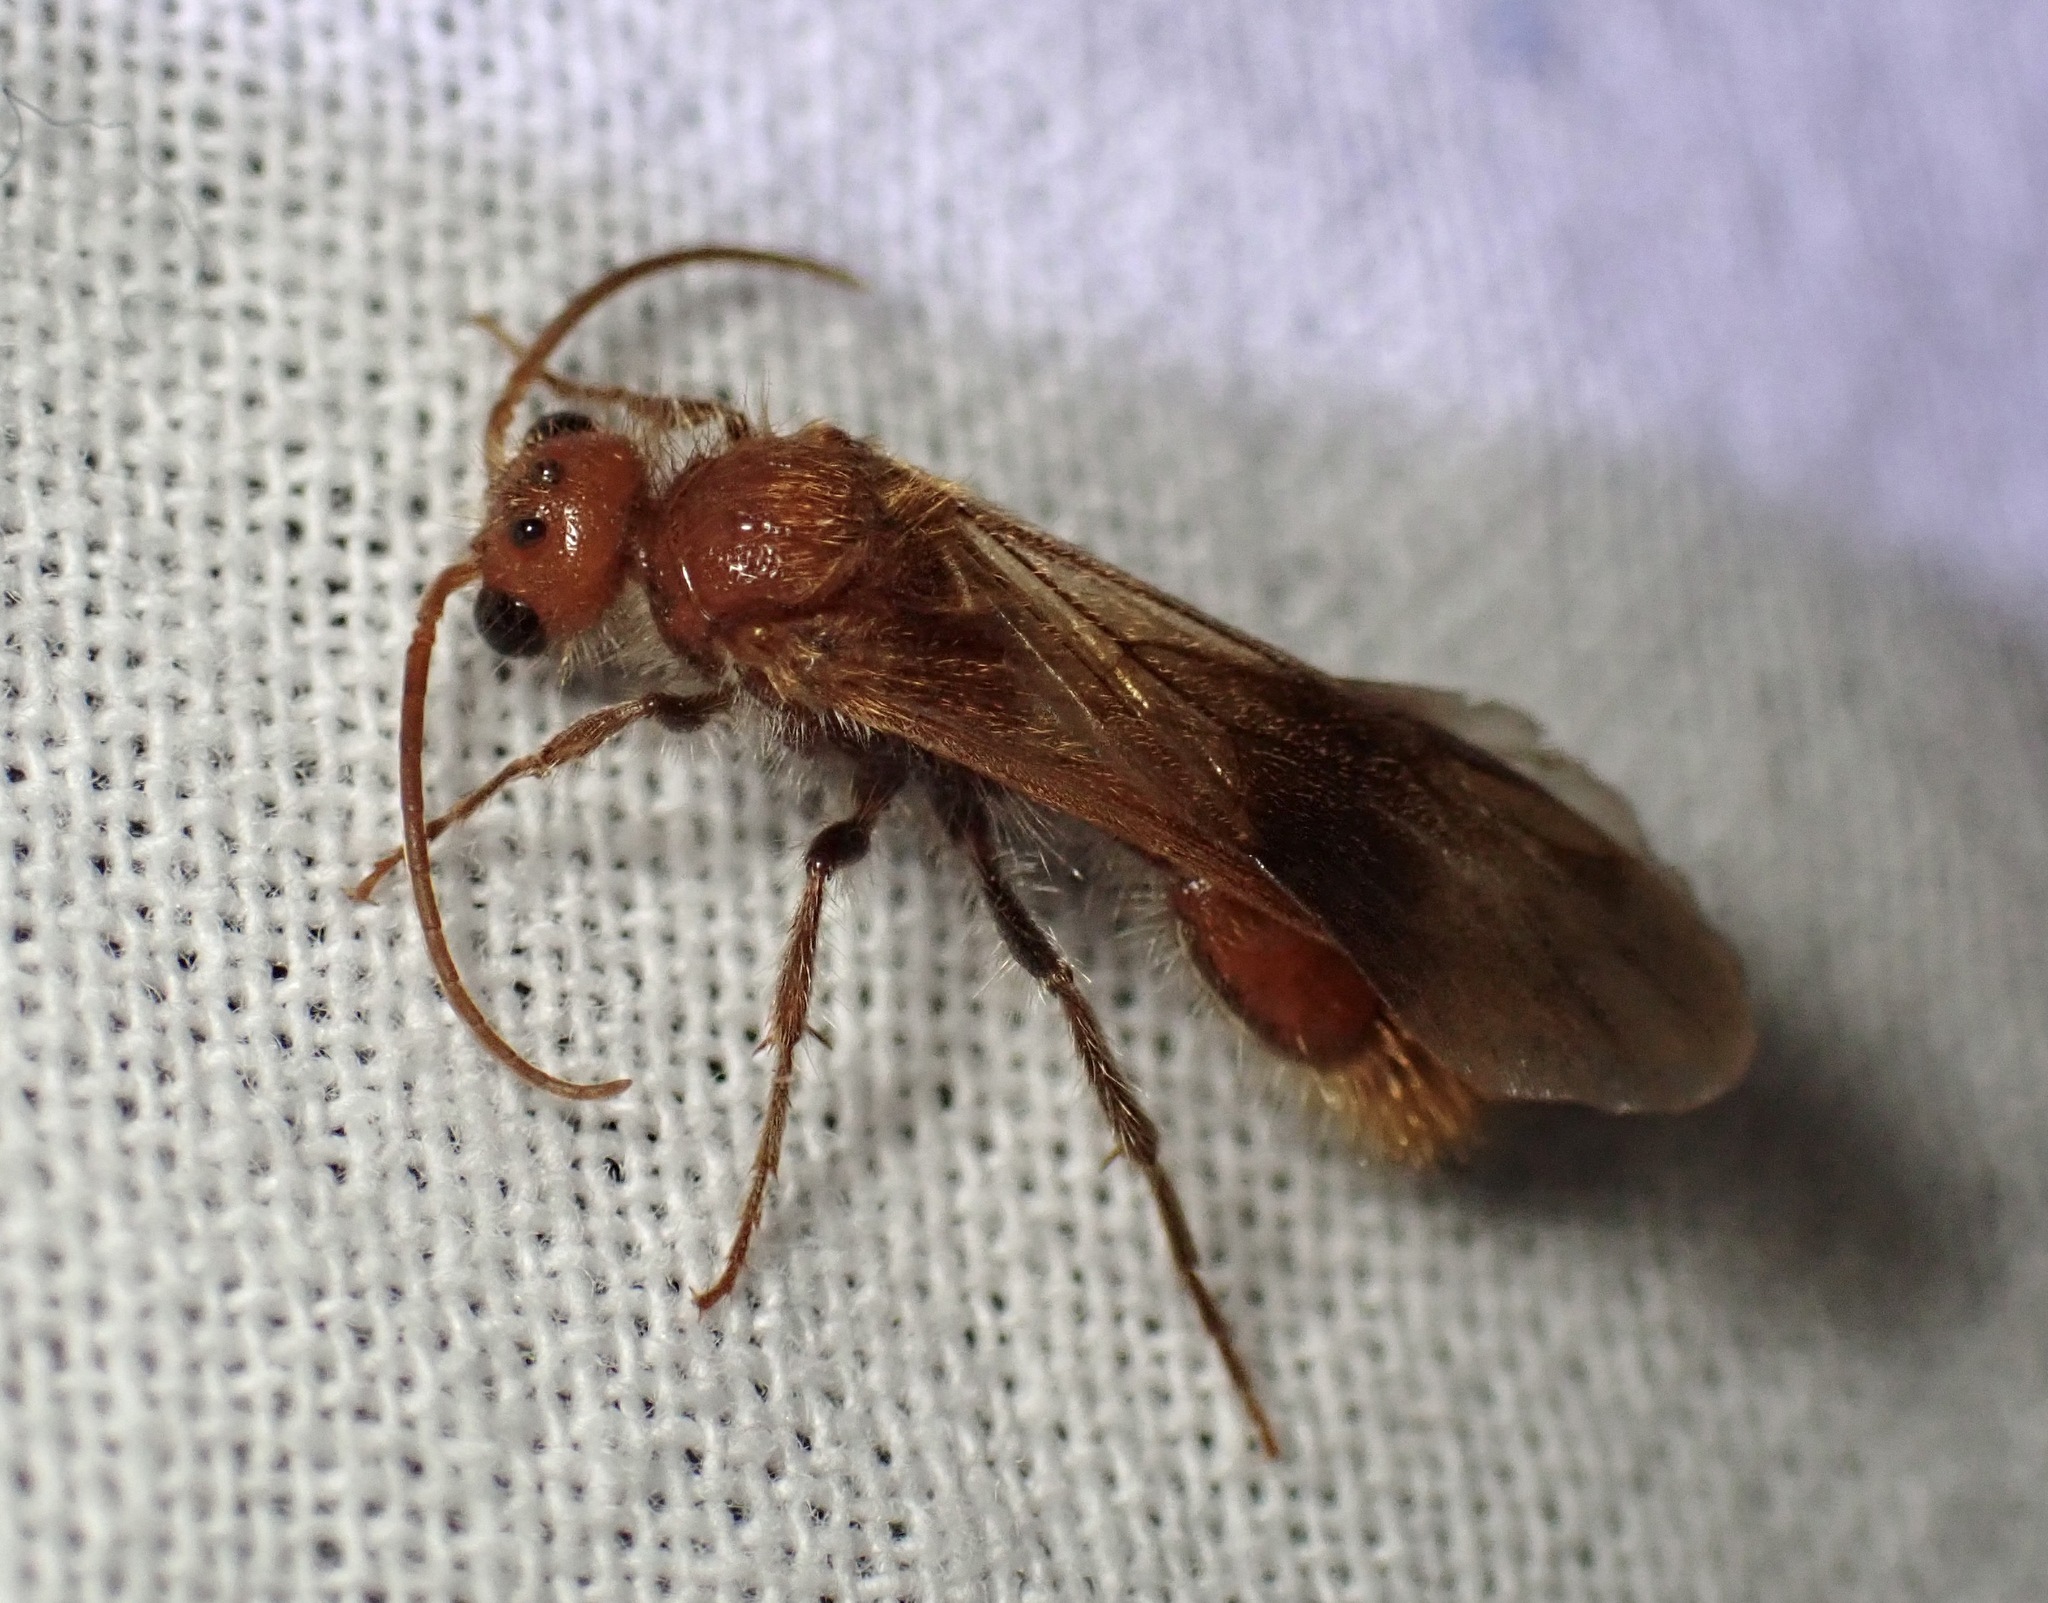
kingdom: Animalia
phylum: Arthropoda
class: Insecta
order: Hymenoptera
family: Mutillidae
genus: Sphaeropthalma
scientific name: Sphaeropthalma unicolor
